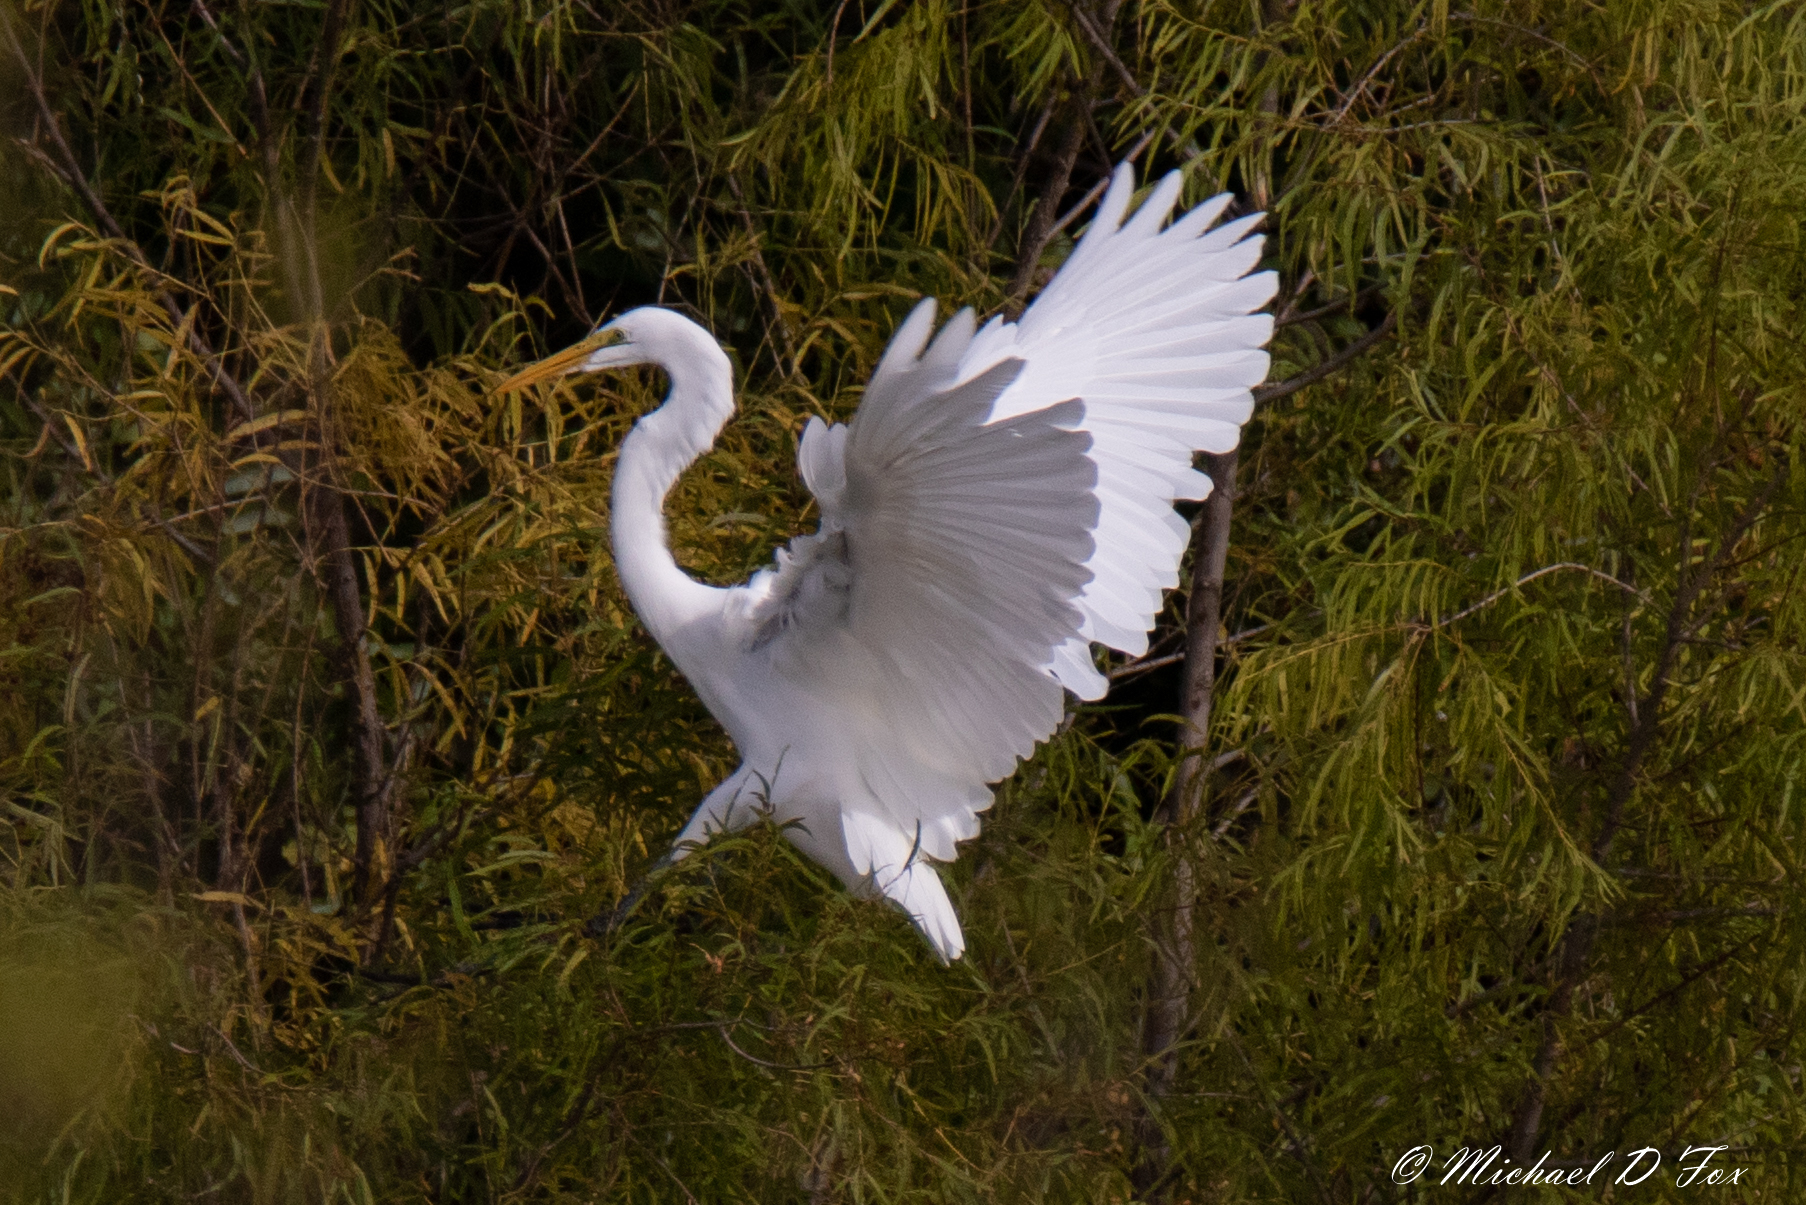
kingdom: Animalia
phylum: Chordata
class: Aves
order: Pelecaniformes
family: Ardeidae
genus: Ardea
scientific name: Ardea alba
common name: Great egret
